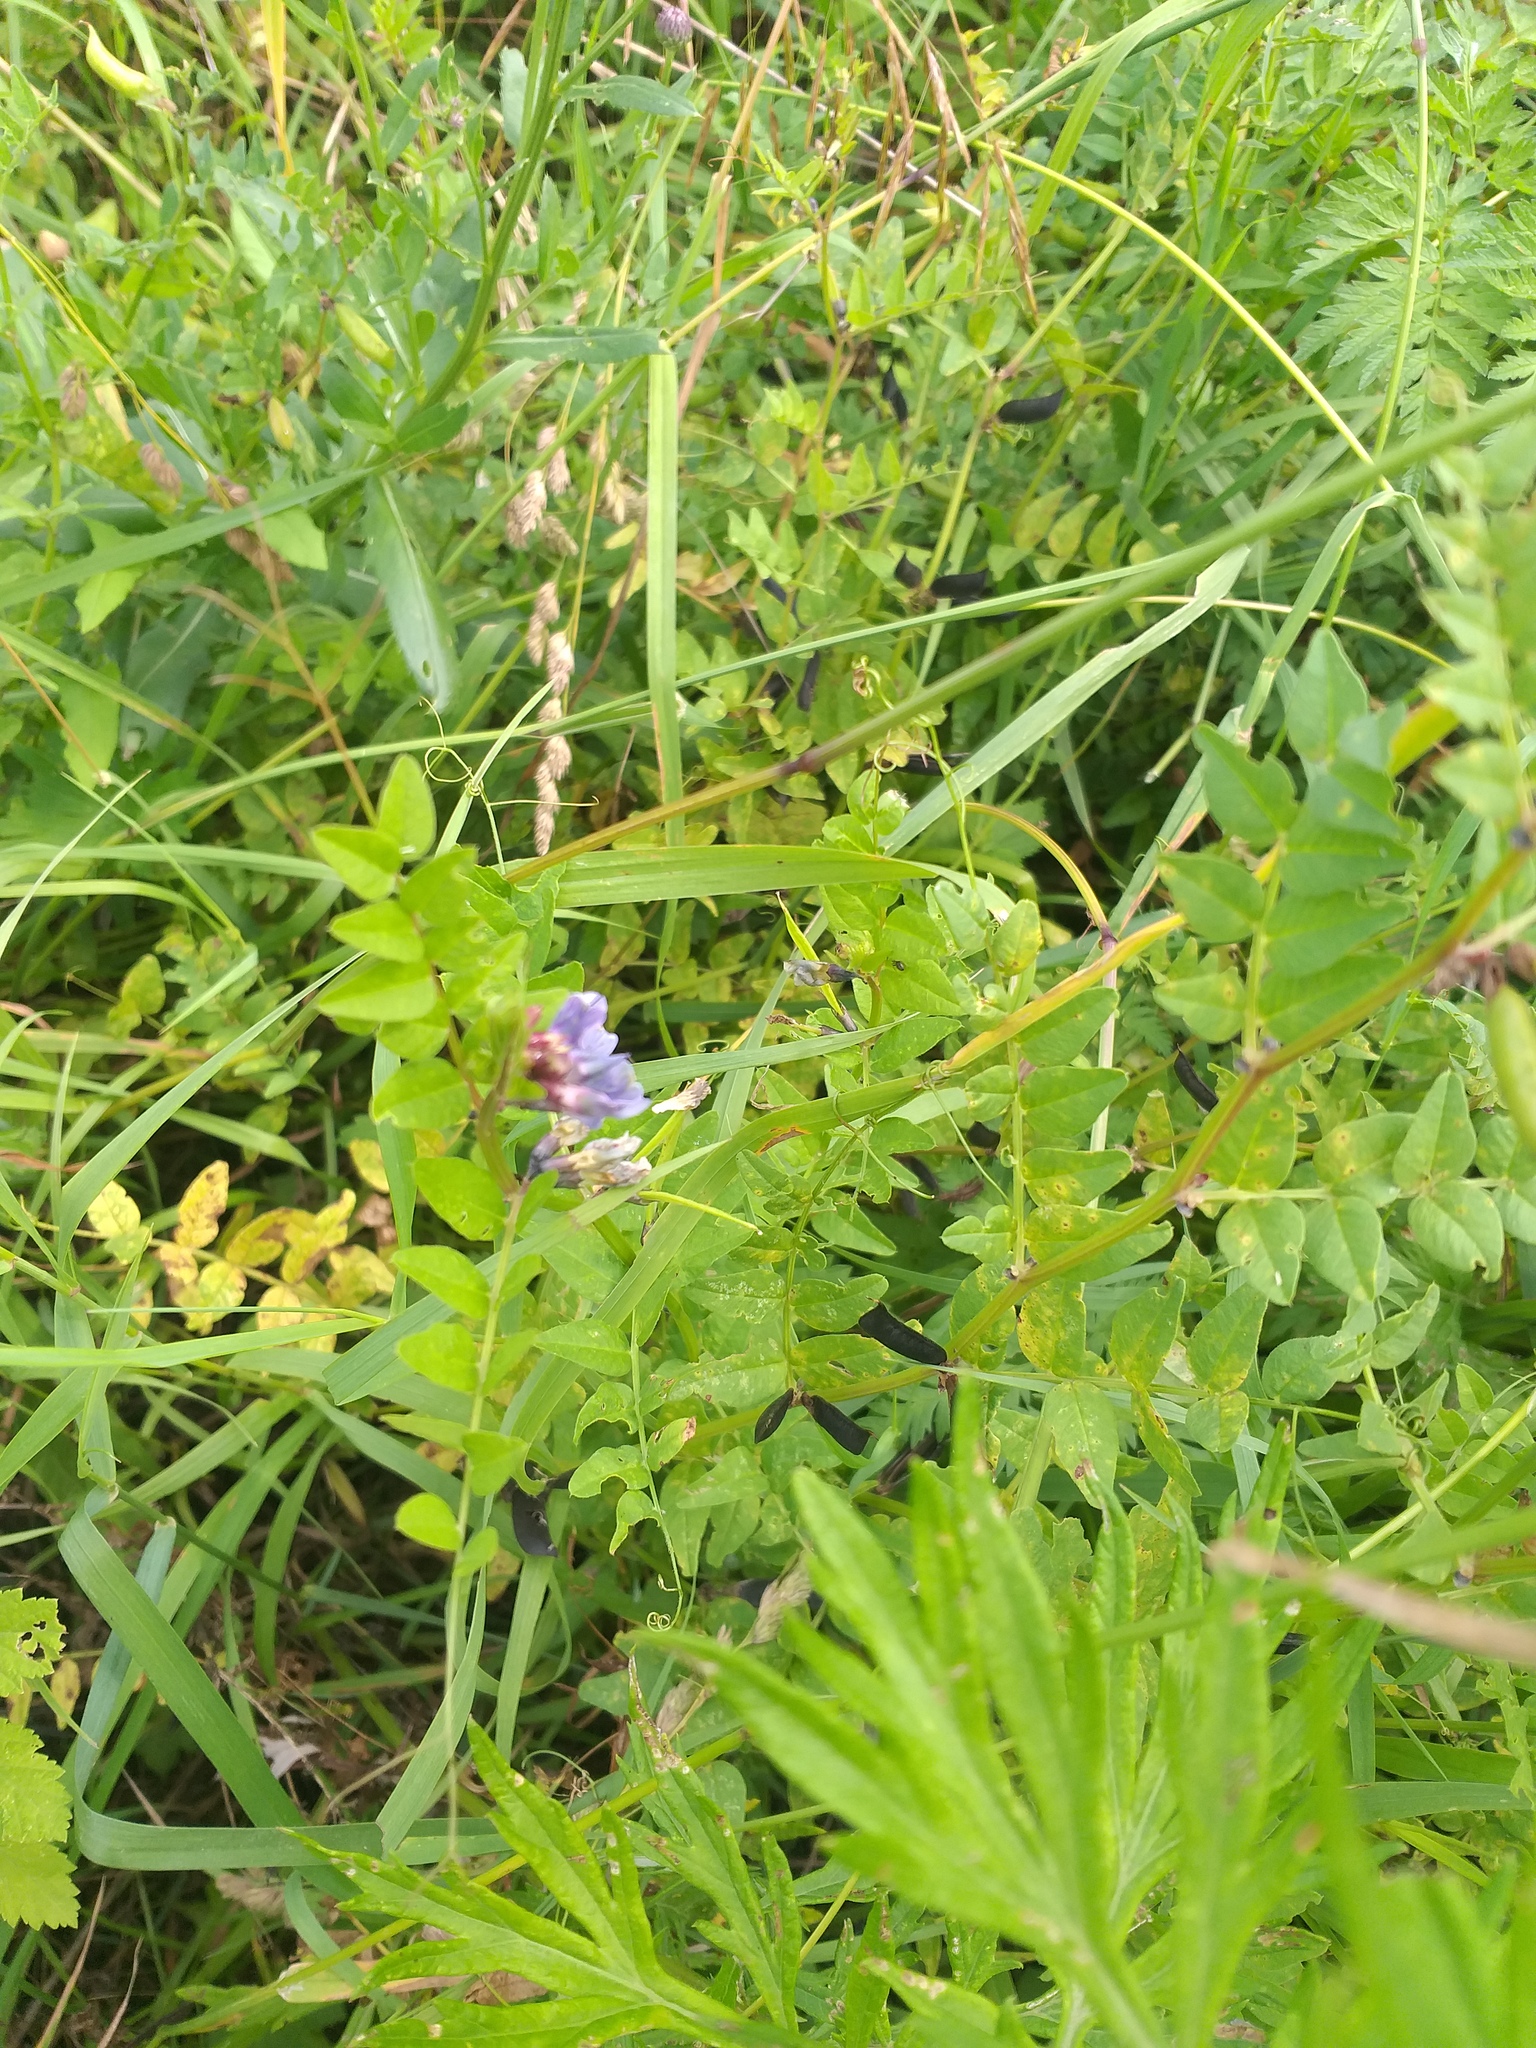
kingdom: Plantae
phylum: Tracheophyta
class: Magnoliopsida
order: Fabales
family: Fabaceae
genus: Vicia
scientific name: Vicia sepium
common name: Bush vetch
